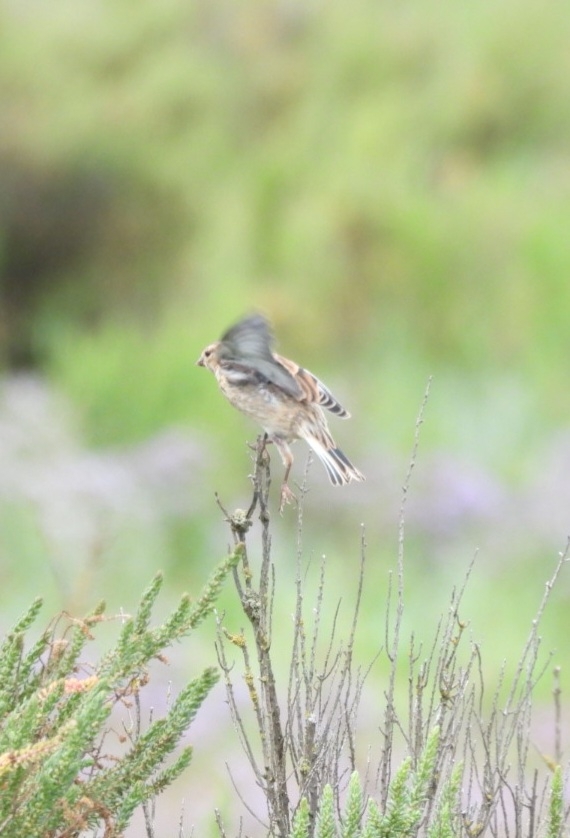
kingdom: Animalia
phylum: Chordata
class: Aves
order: Passeriformes
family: Fringillidae
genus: Linaria
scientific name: Linaria cannabina
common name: Common linnet
